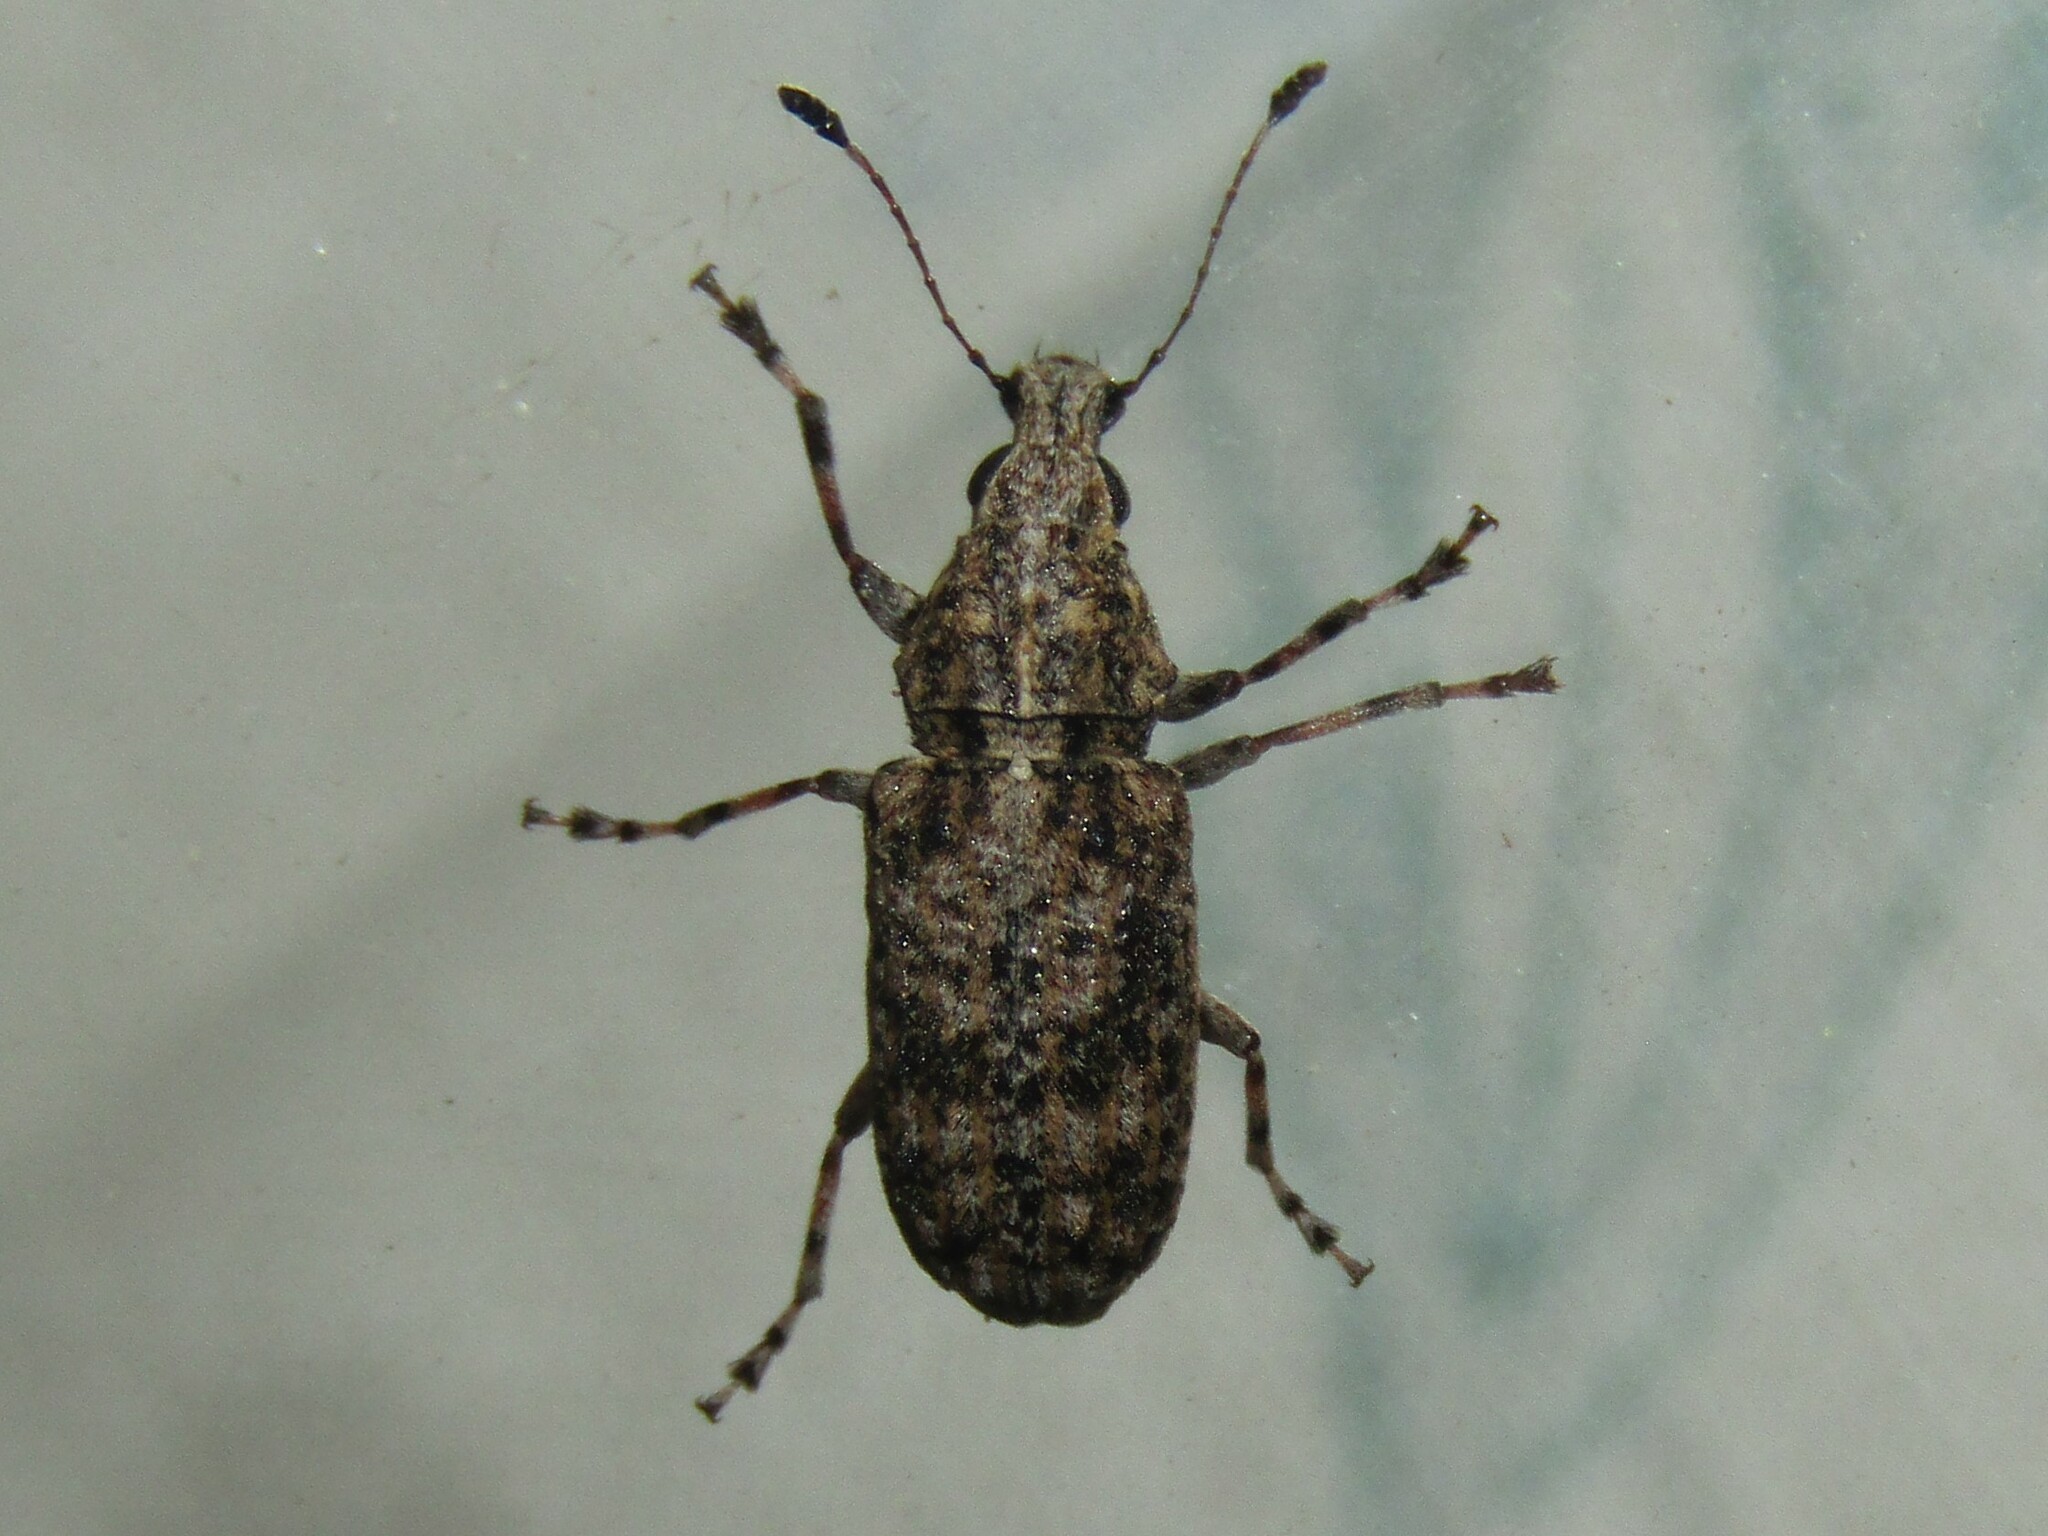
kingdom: Animalia
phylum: Arthropoda
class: Insecta
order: Coleoptera
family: Anthribidae
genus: Meconemus
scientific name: Meconemus infuscatus
